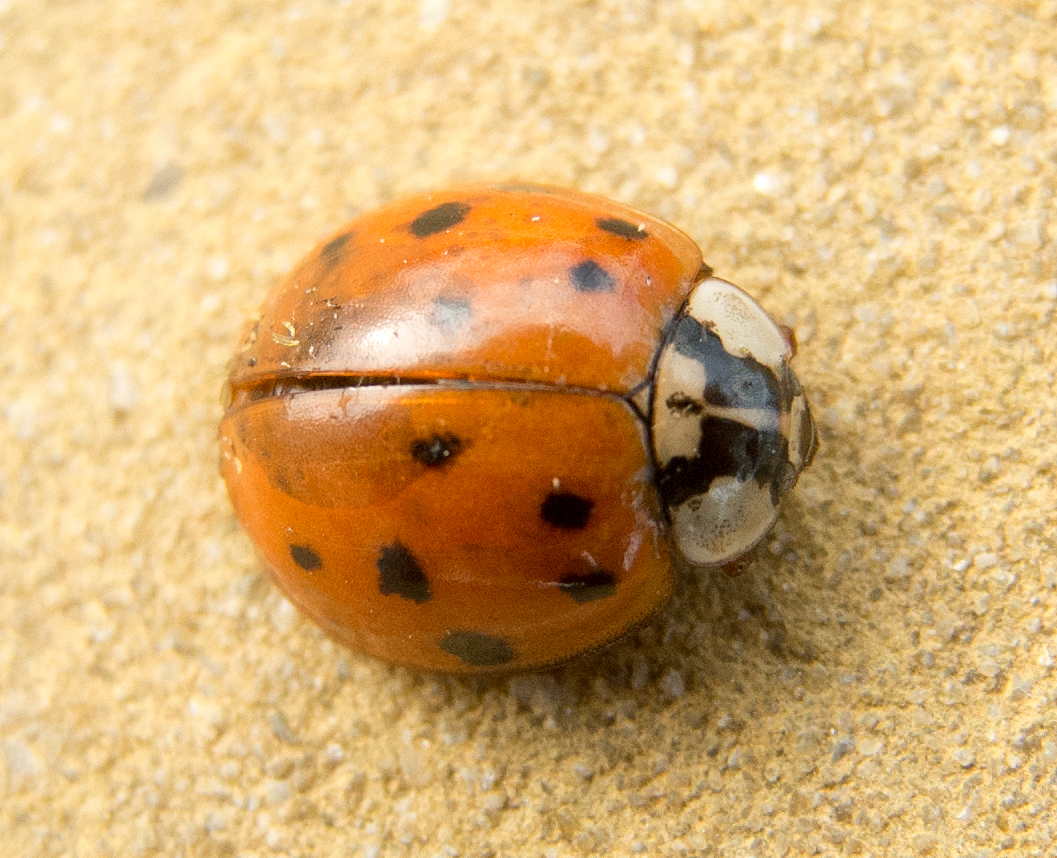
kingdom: Animalia
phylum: Arthropoda
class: Insecta
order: Coleoptera
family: Coccinellidae
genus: Harmonia
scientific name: Harmonia axyridis
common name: Harlequin ladybird
